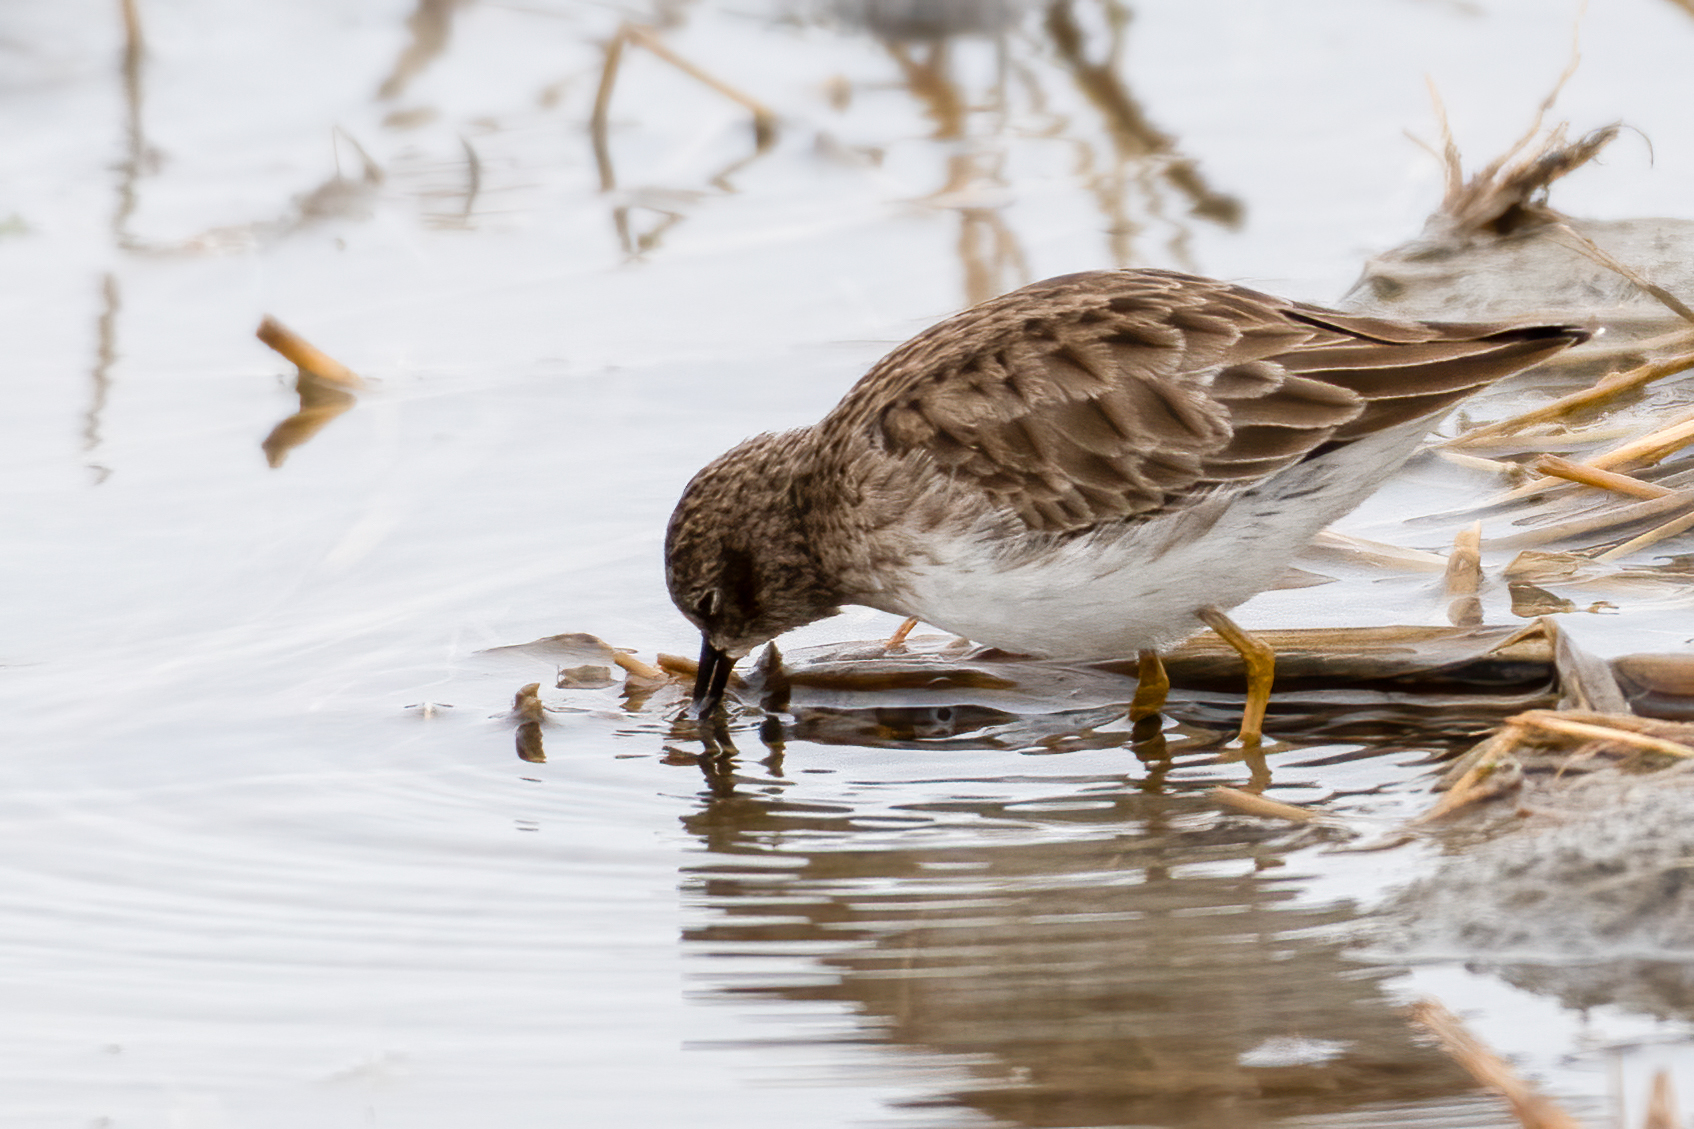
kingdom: Animalia
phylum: Chordata
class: Aves
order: Charadriiformes
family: Scolopacidae
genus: Calidris
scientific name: Calidris minutilla
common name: Least sandpiper
